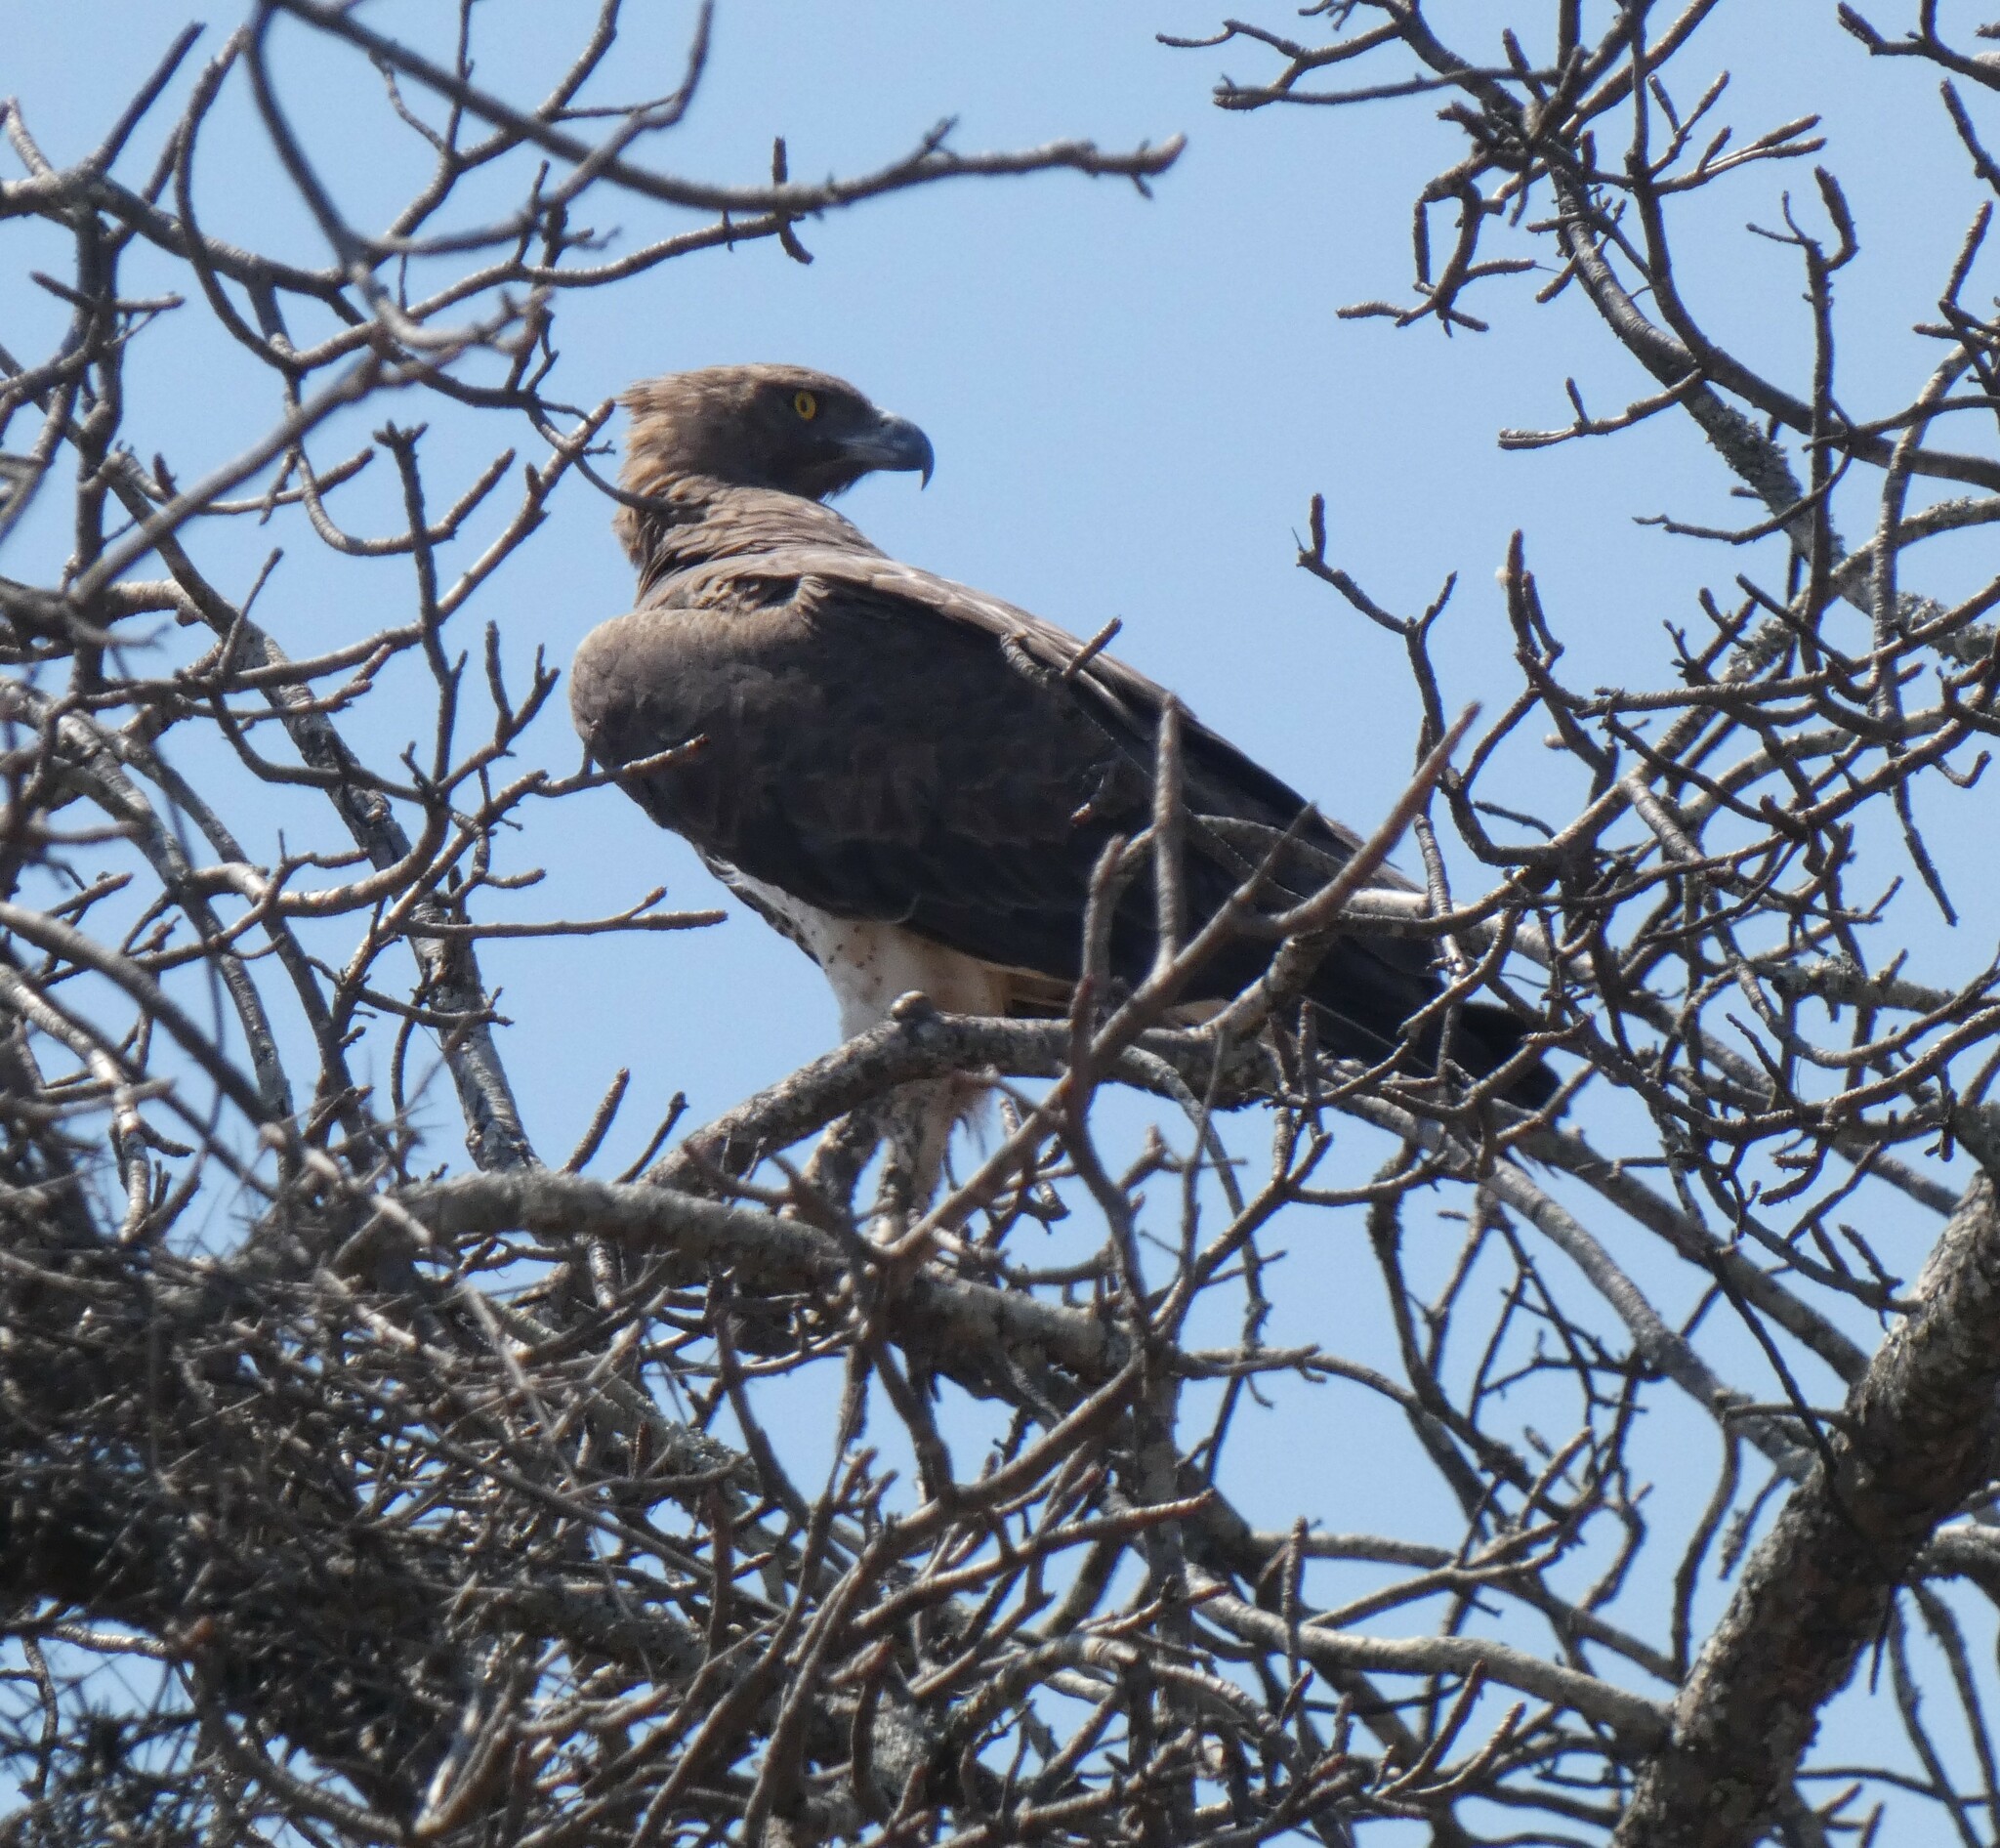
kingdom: Animalia
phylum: Chordata
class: Aves
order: Accipitriformes
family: Accipitridae
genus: Polemaetus
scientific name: Polemaetus bellicosus
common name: Martial eagle
